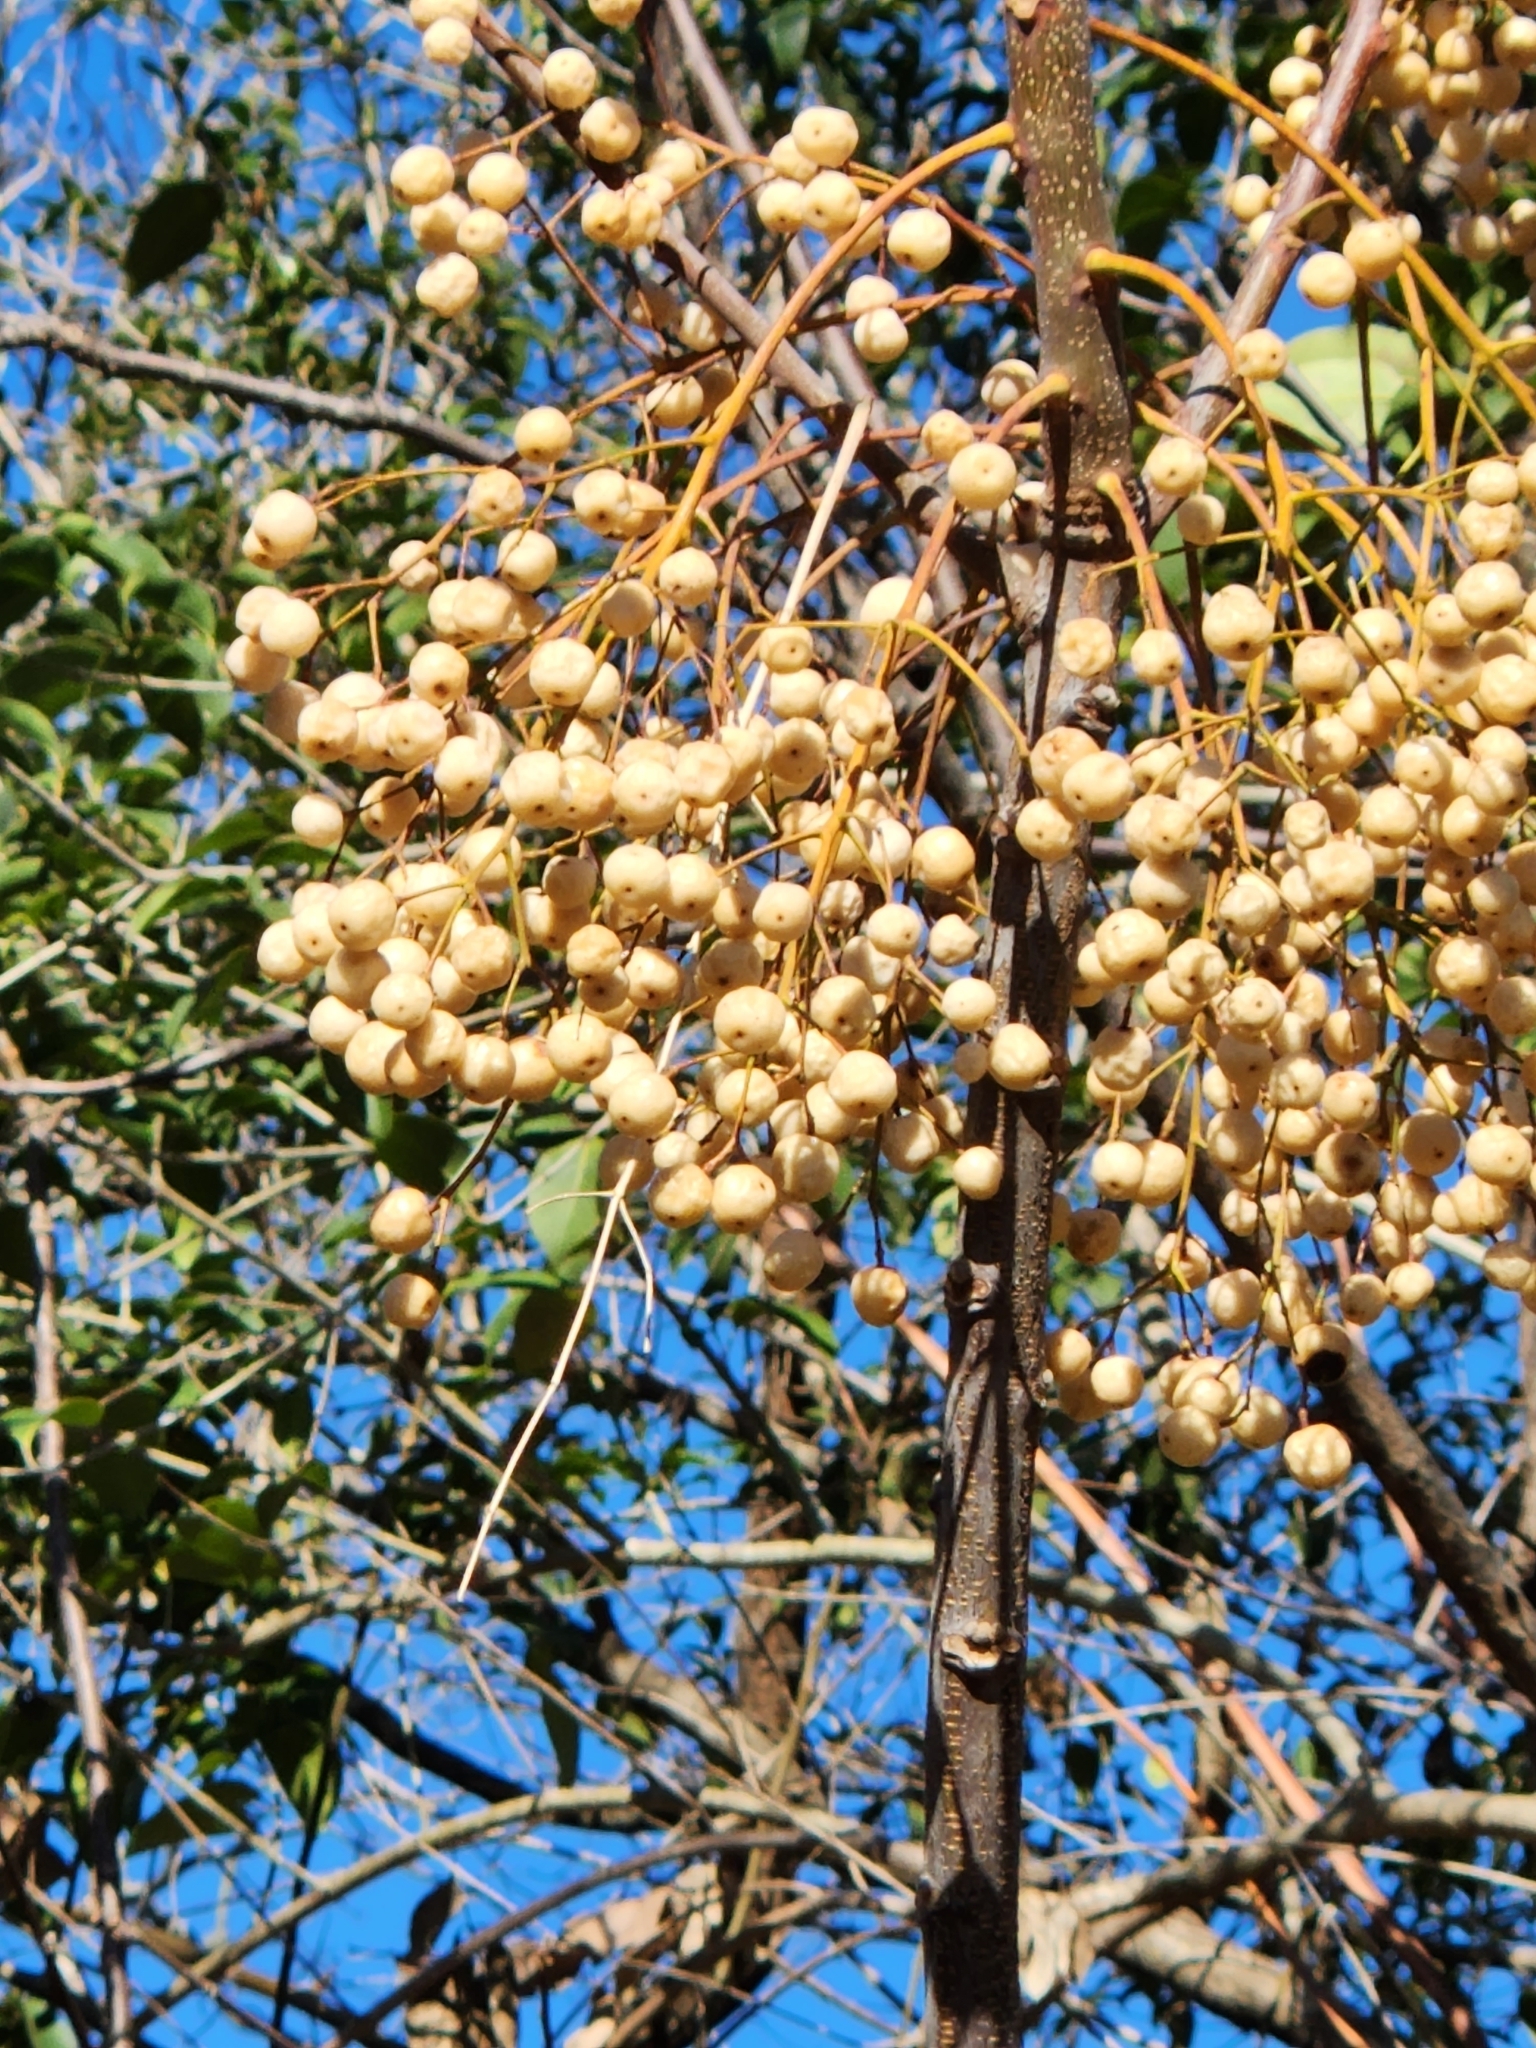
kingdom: Plantae
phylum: Tracheophyta
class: Magnoliopsida
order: Sapindales
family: Meliaceae
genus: Melia
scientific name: Melia azedarach
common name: Chinaberrytree
